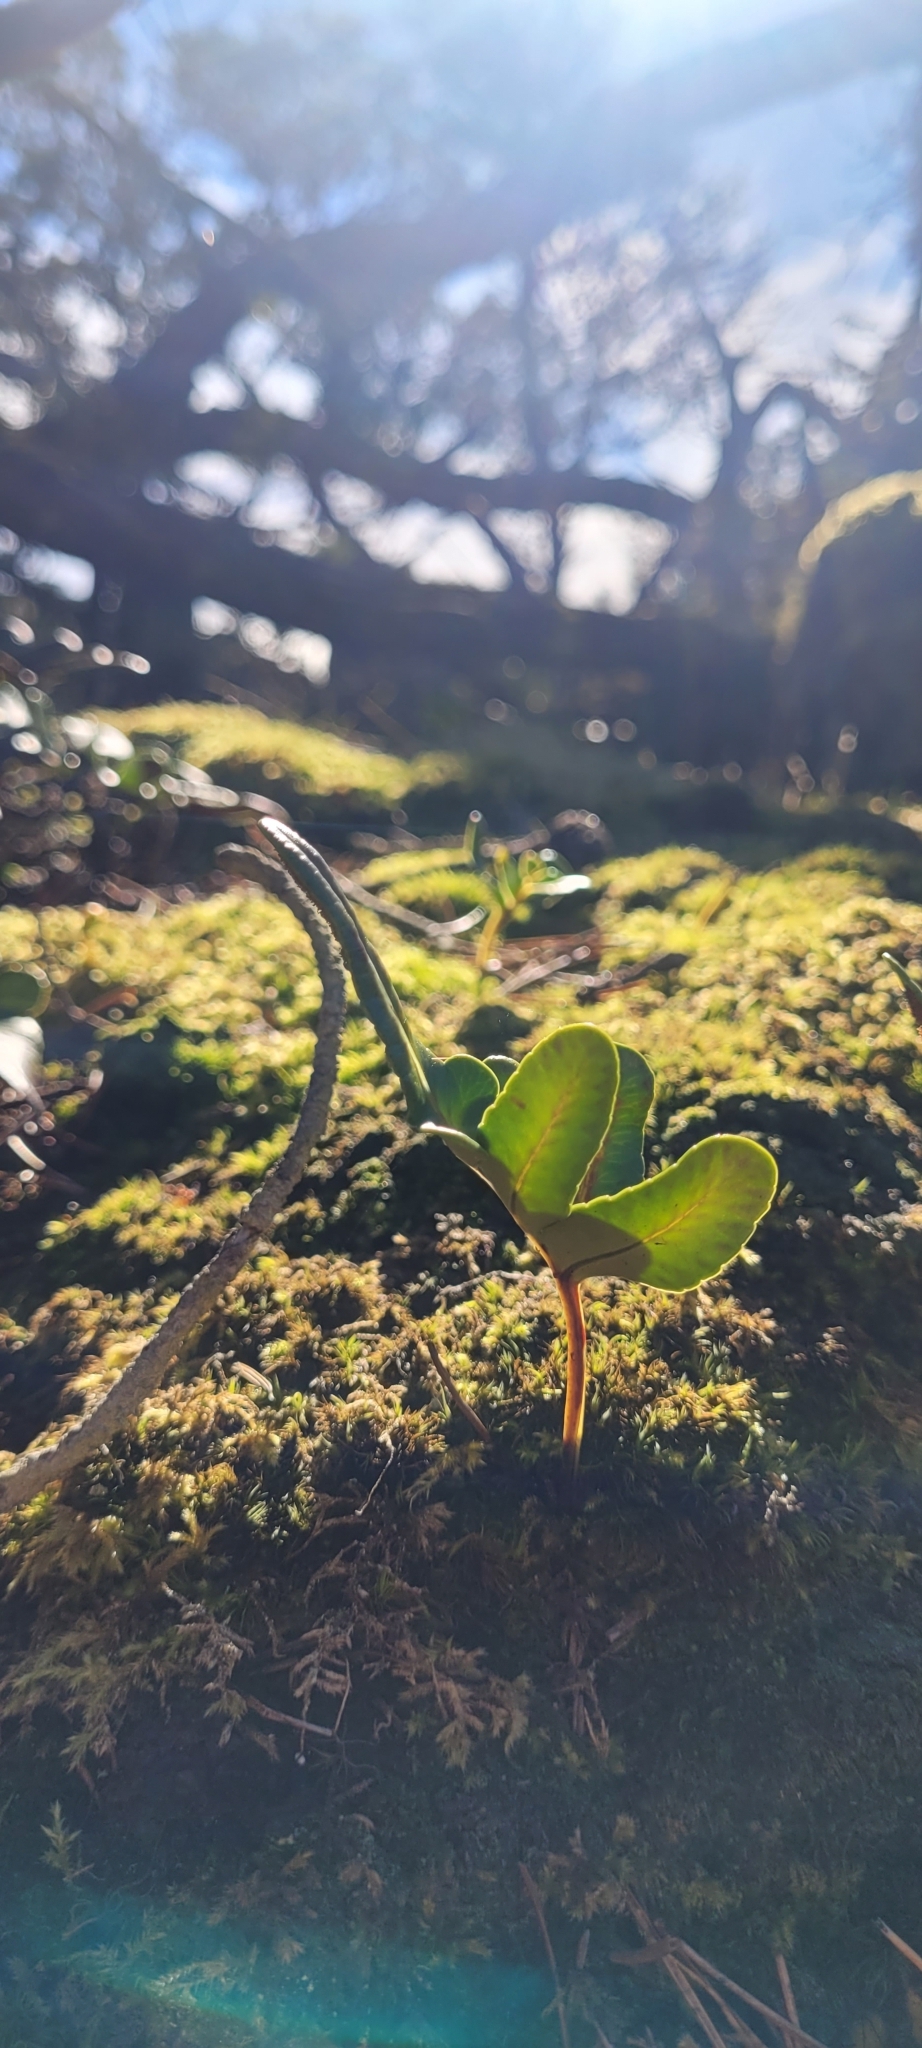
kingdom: Plantae
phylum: Tracheophyta
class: Polypodiopsida
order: Polypodiales
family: Polypodiaceae
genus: Polypodium
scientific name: Polypodium scouleri
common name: Scouler's polypody
